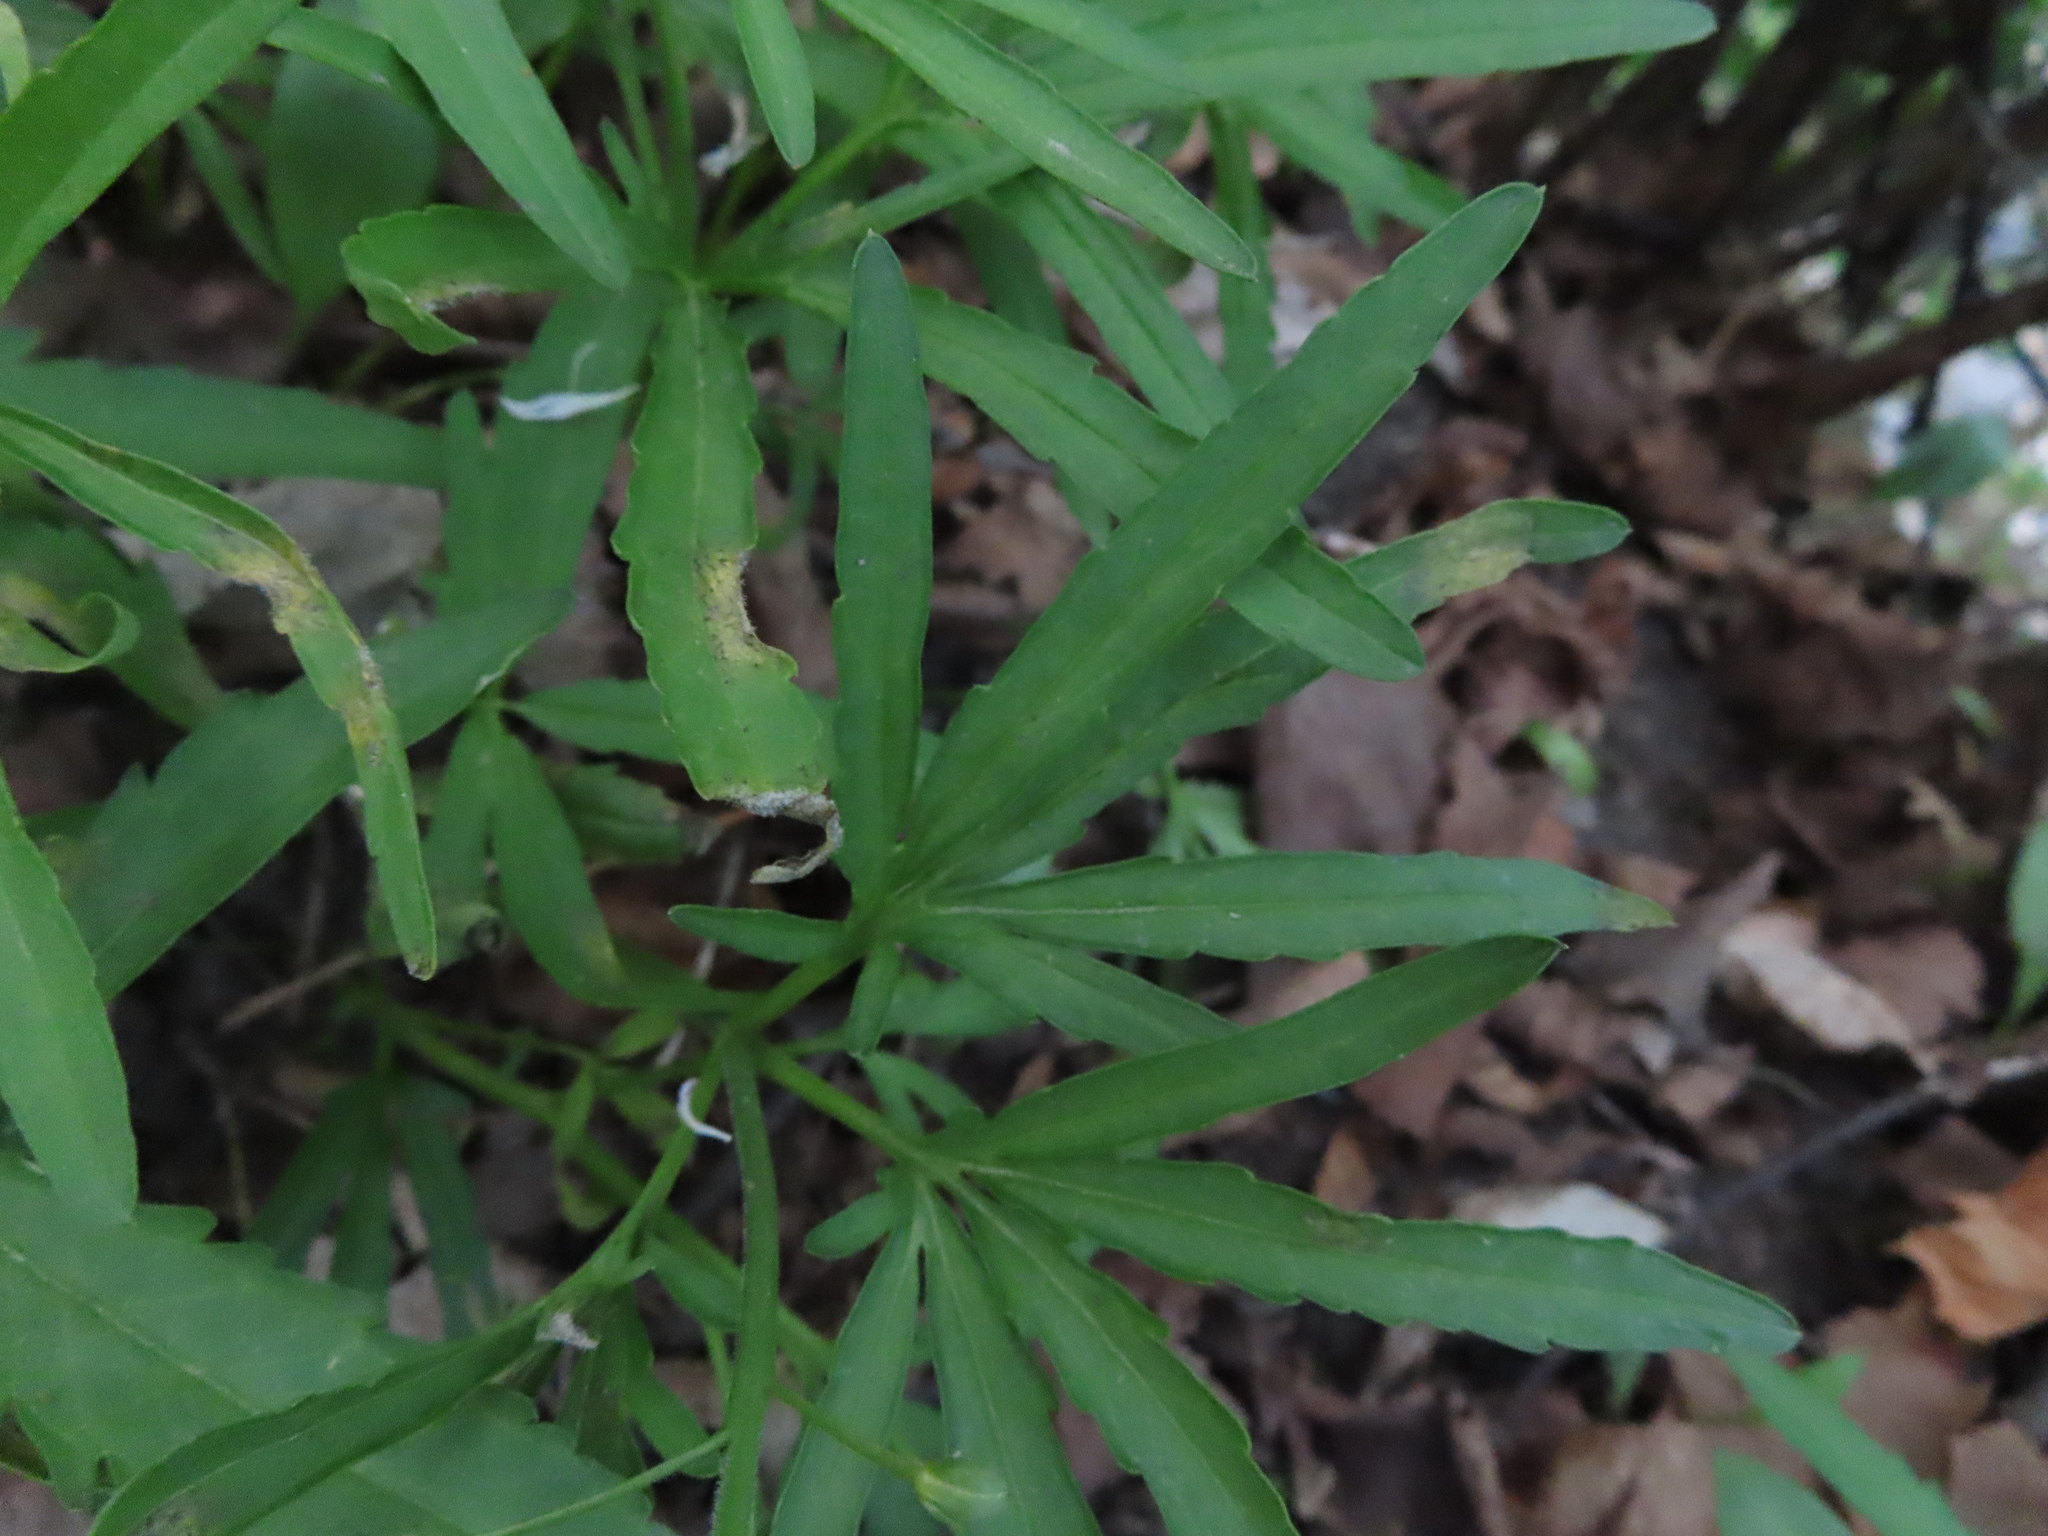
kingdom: Plantae
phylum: Tracheophyta
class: Magnoliopsida
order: Brassicales
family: Brassicaceae
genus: Cardamine
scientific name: Cardamine concatenata
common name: Cut-leaf toothcup
